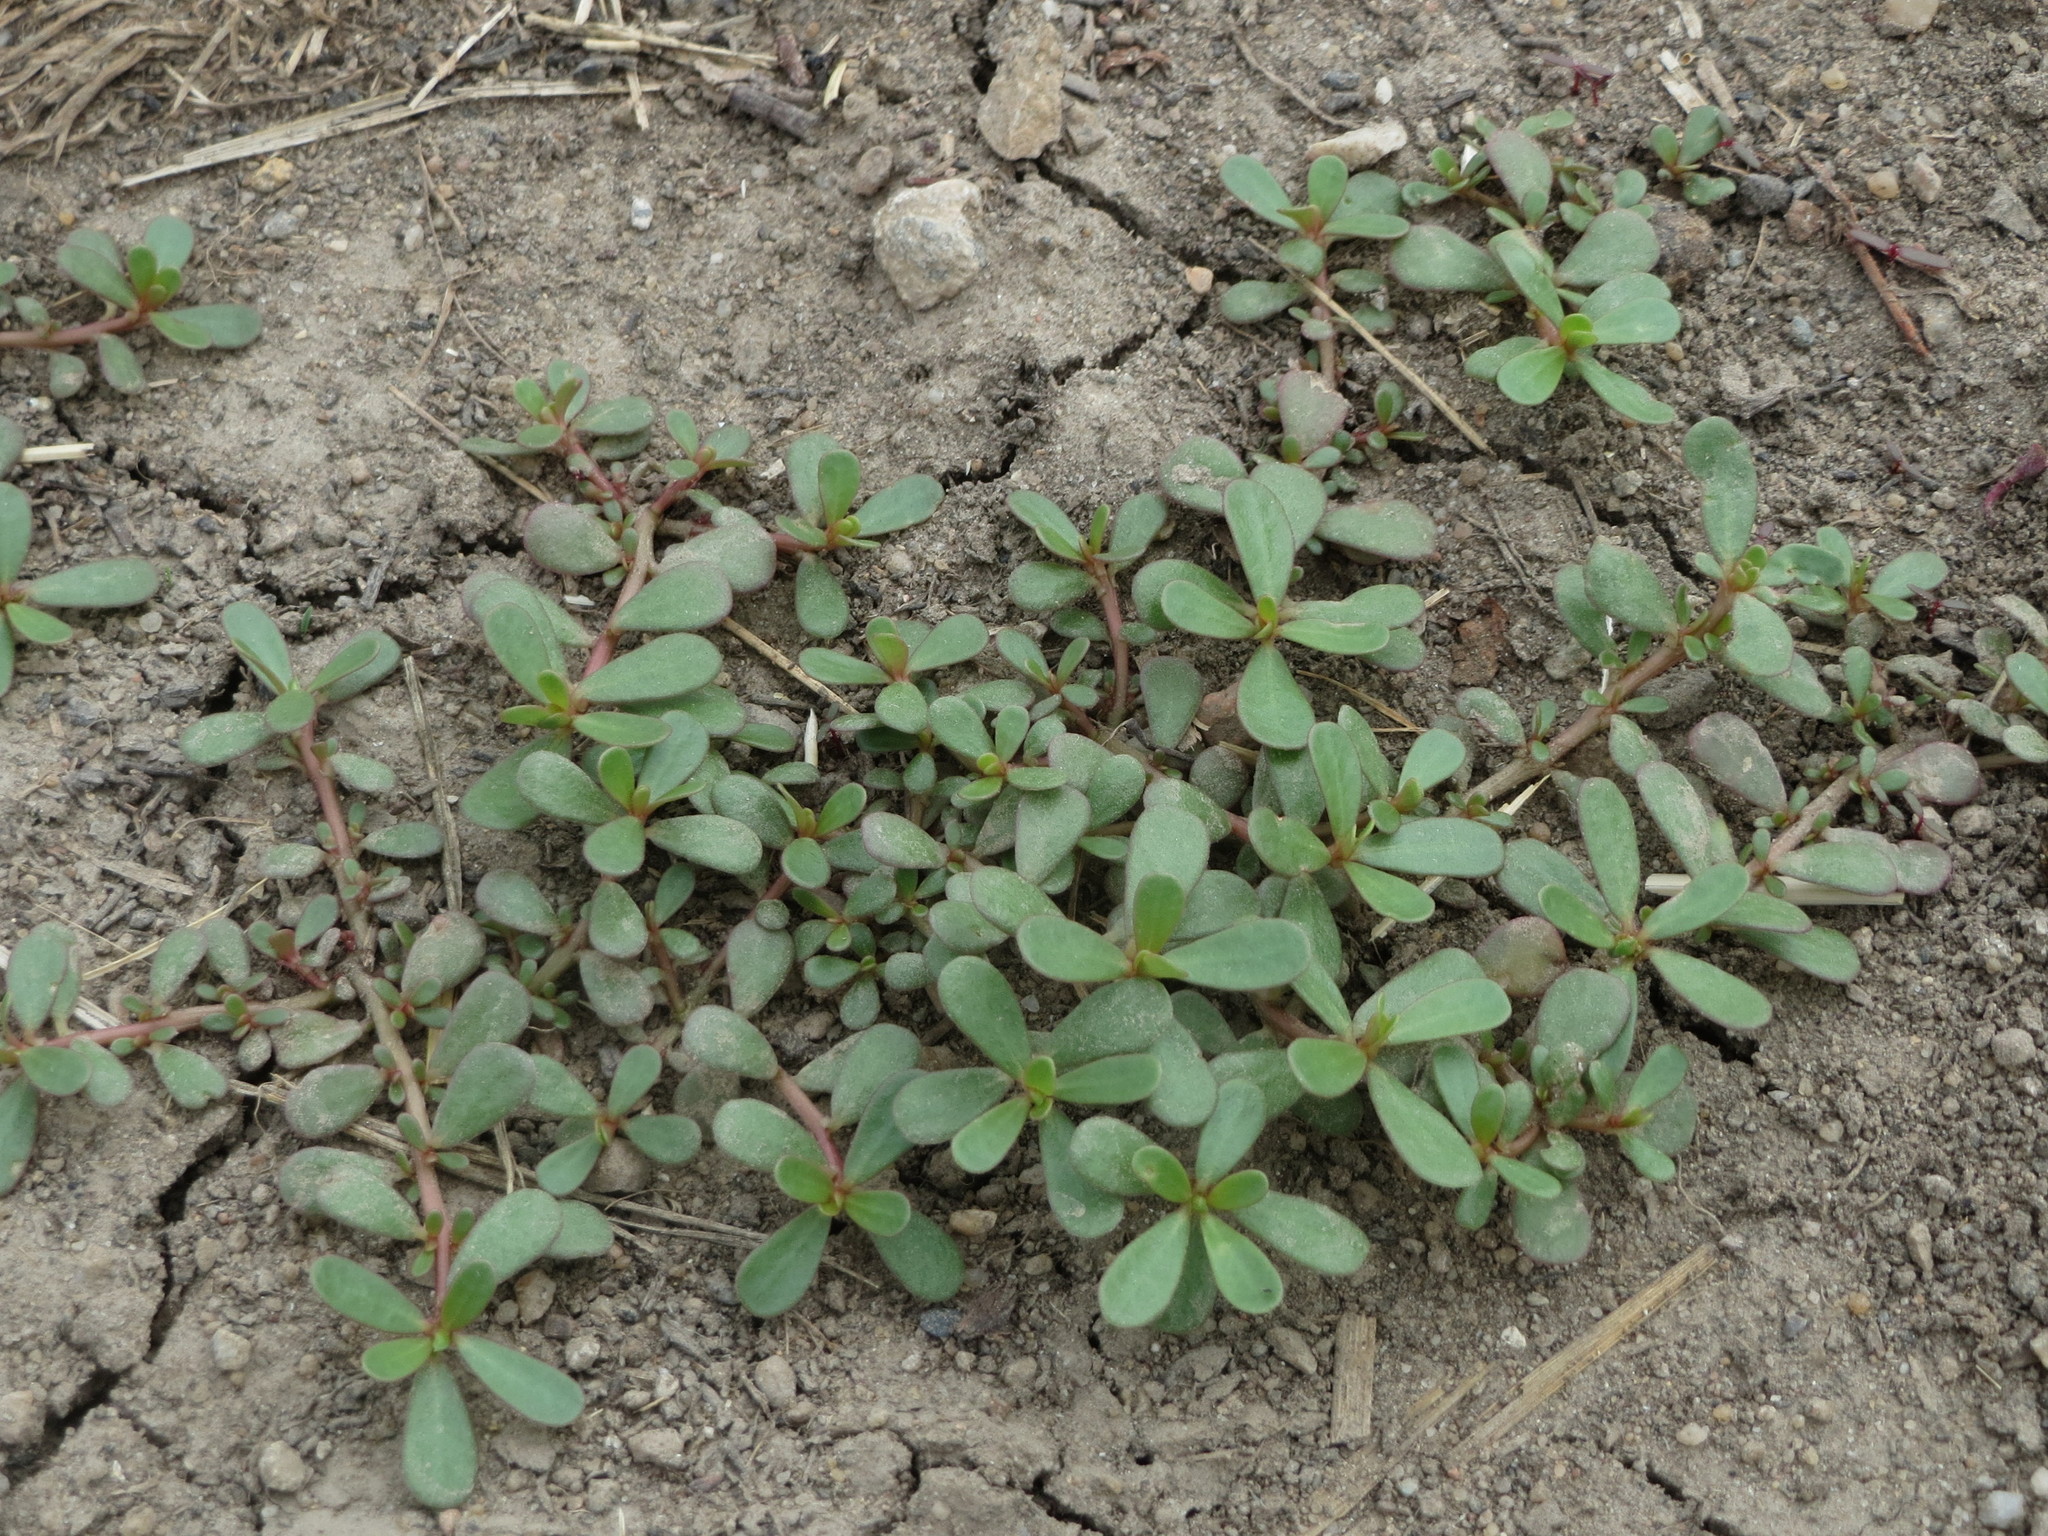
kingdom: Plantae
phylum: Tracheophyta
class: Magnoliopsida
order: Caryophyllales
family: Portulacaceae
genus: Portulaca
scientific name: Portulaca oleracea
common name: Common purslane
